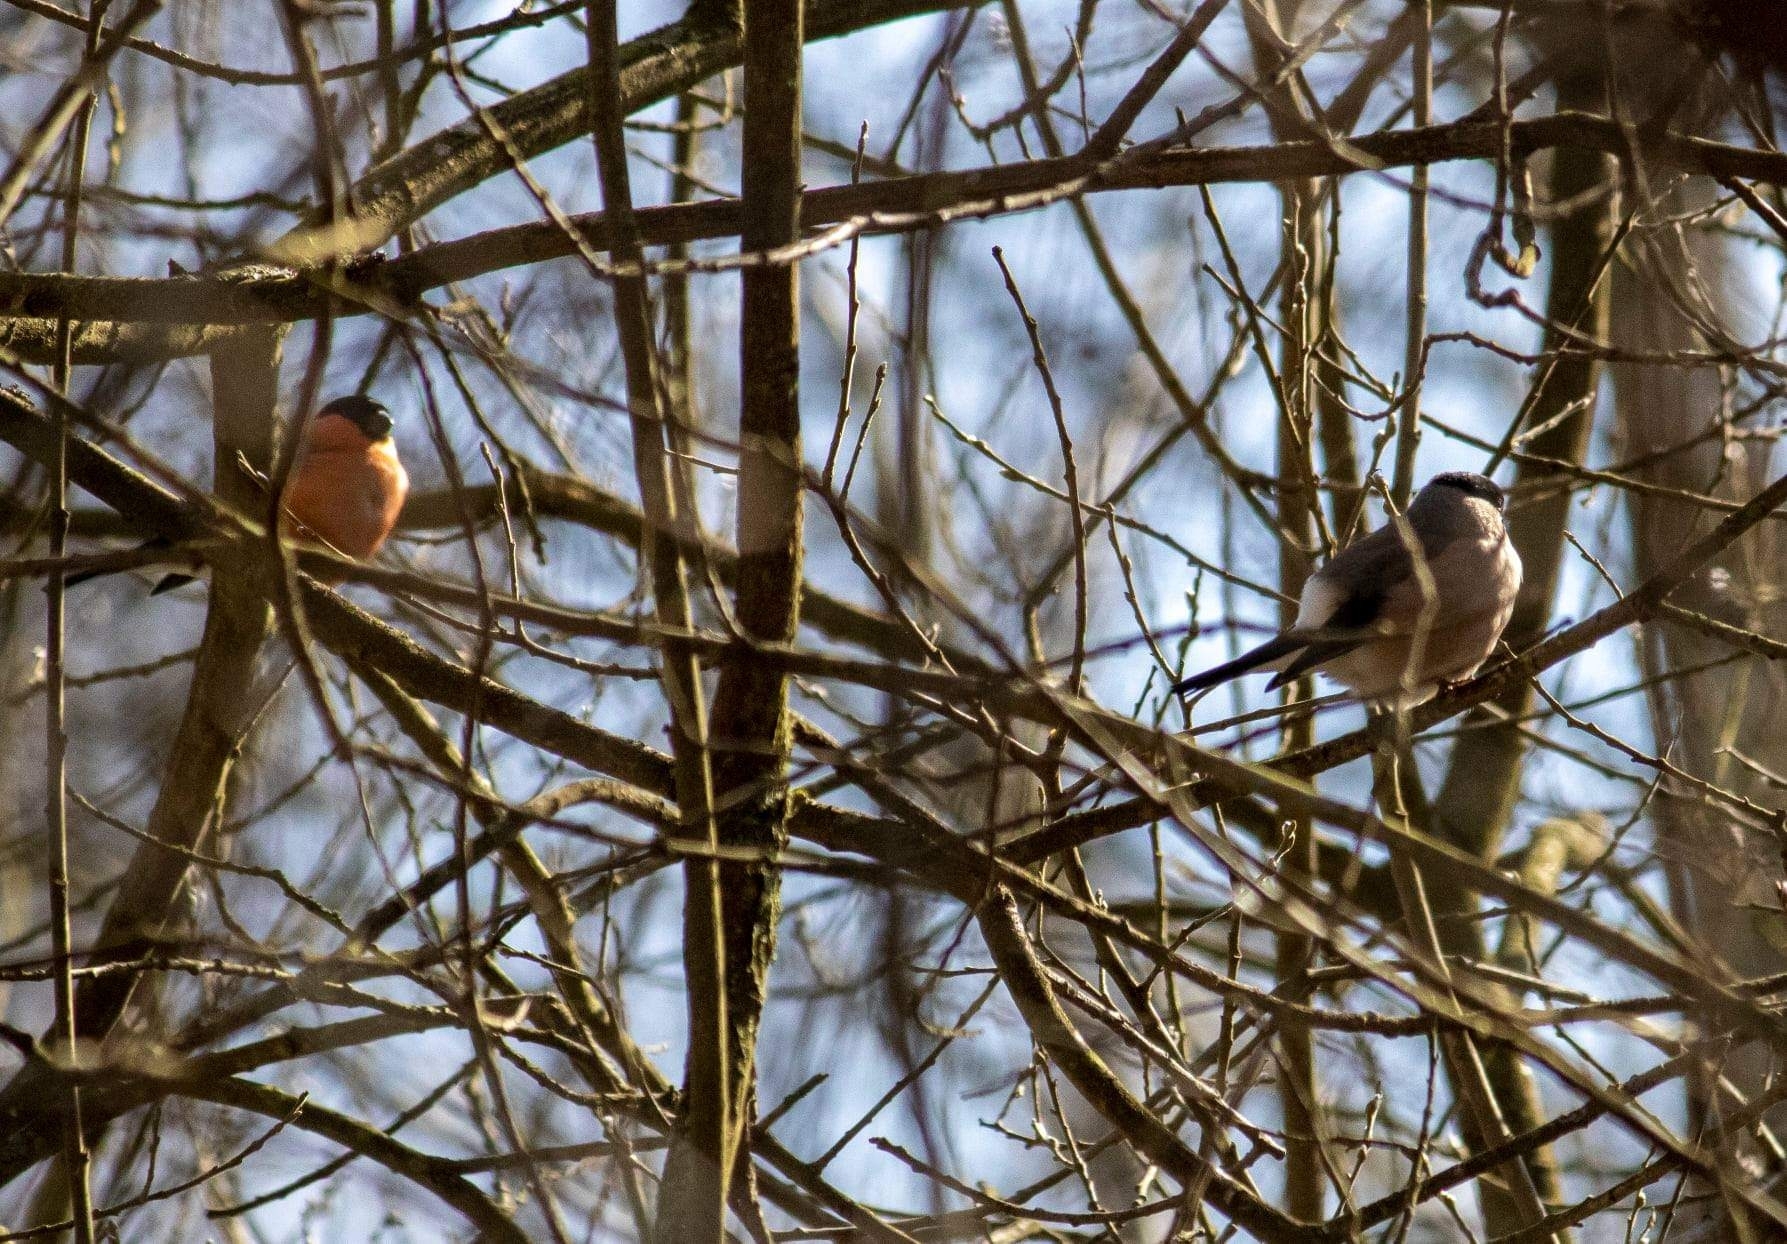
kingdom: Animalia
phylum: Chordata
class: Aves
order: Passeriformes
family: Fringillidae
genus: Pyrrhula
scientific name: Pyrrhula pyrrhula
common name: Eurasian bullfinch
